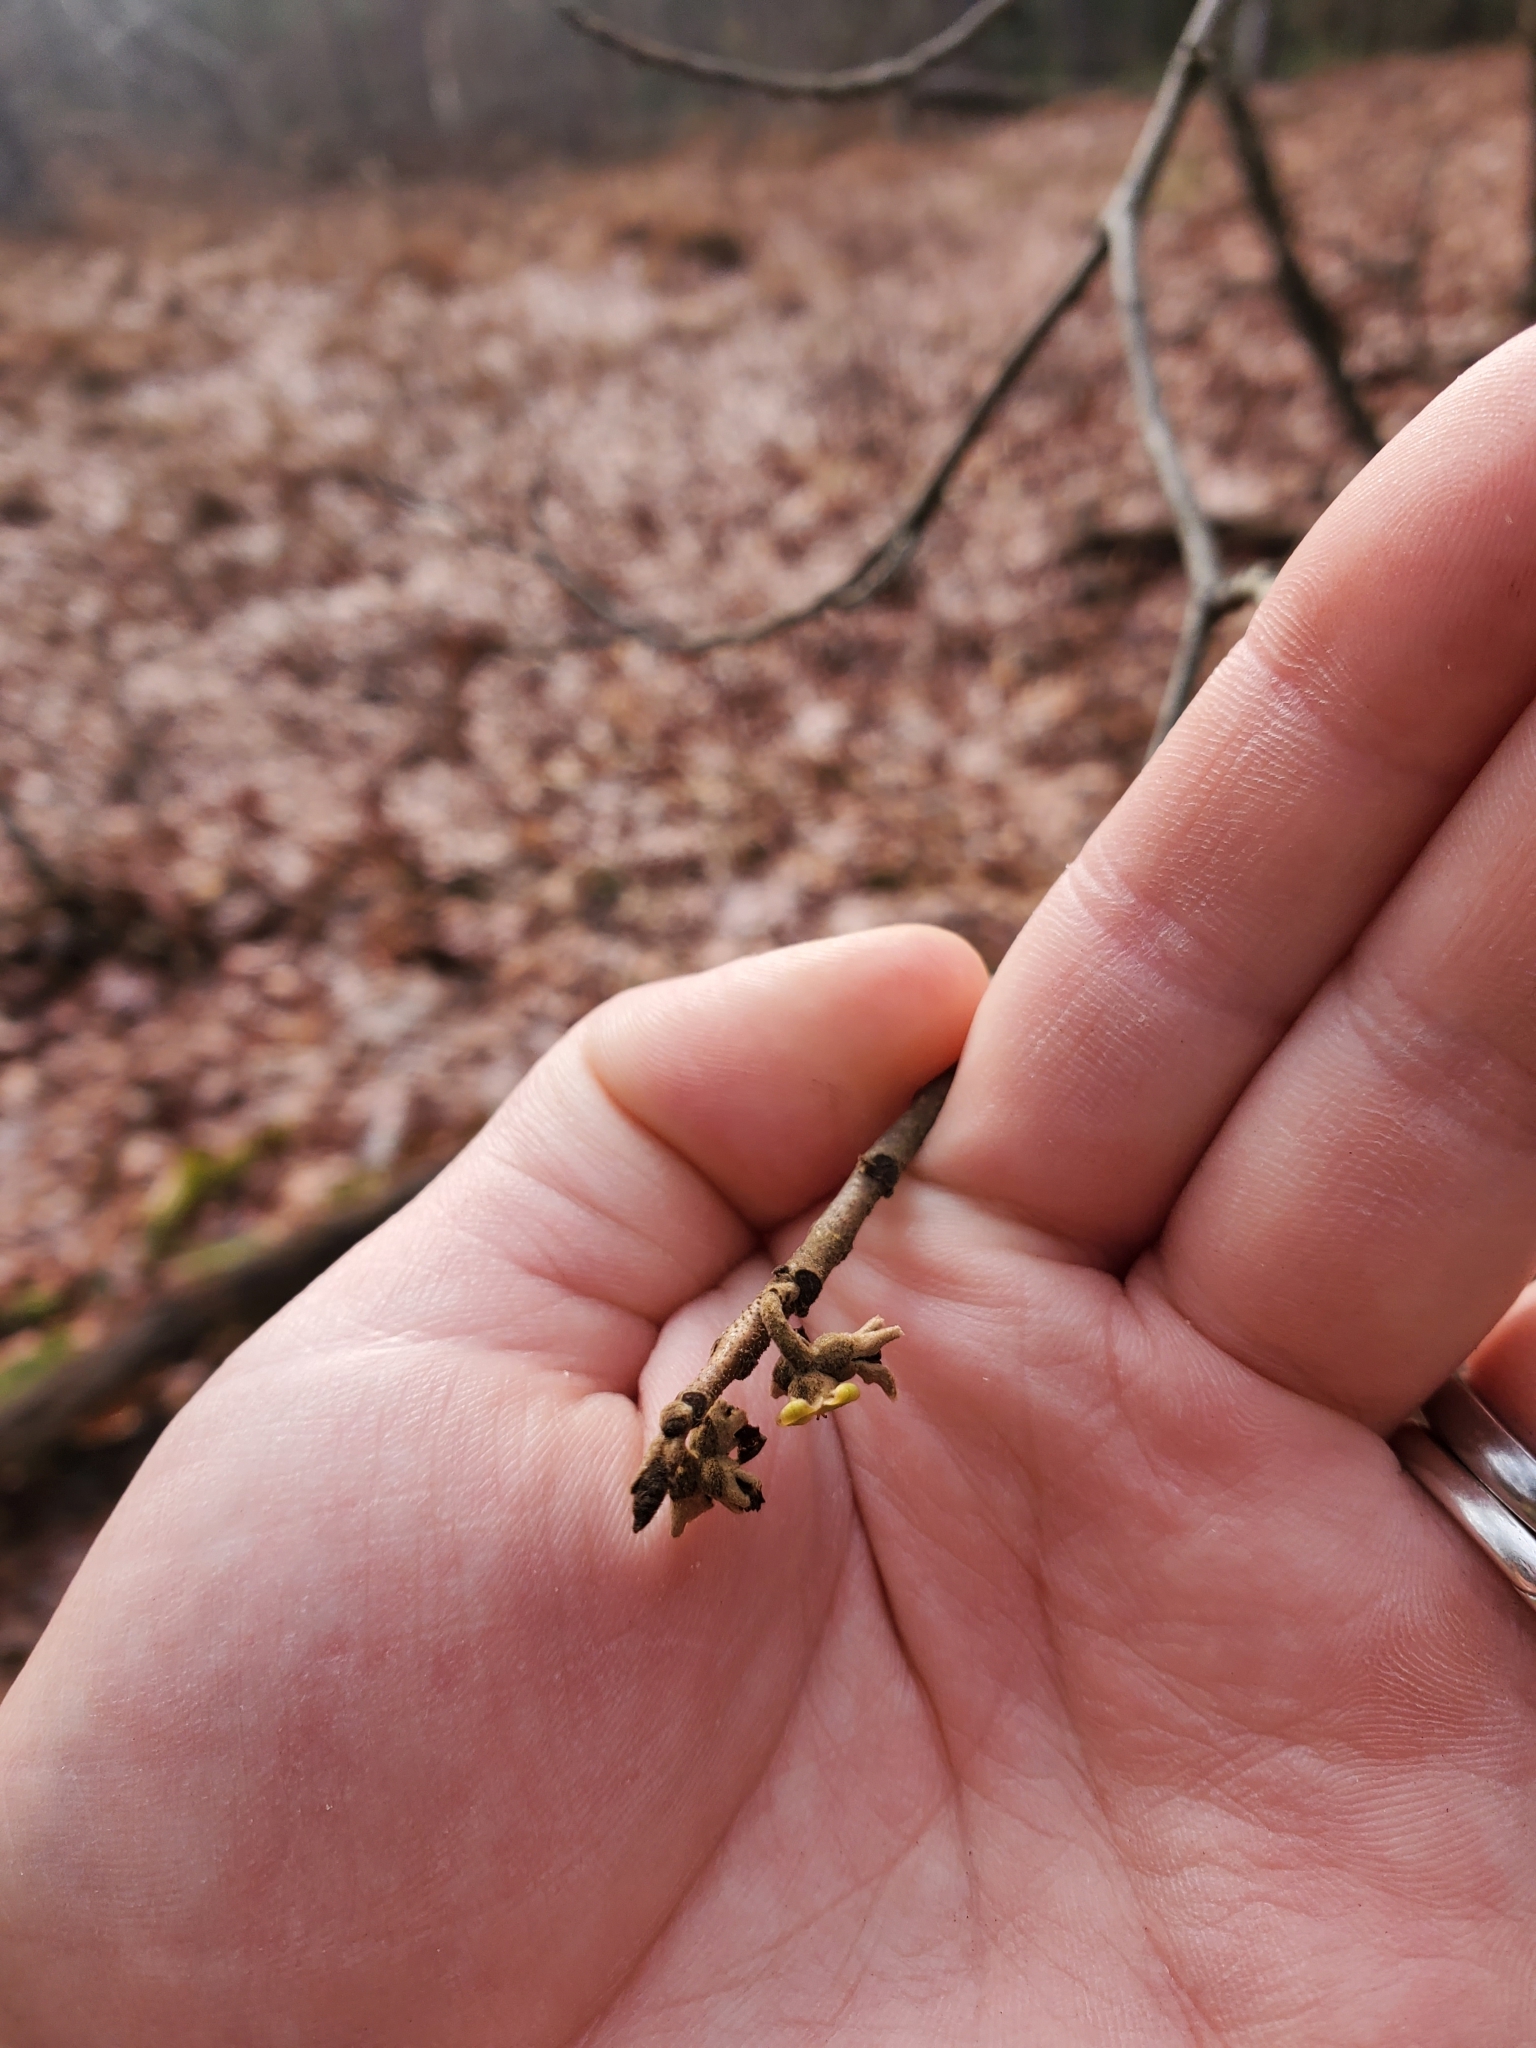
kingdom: Plantae
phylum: Tracheophyta
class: Magnoliopsida
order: Saxifragales
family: Hamamelidaceae
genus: Hamamelis
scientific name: Hamamelis virginiana
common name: Witch-hazel
